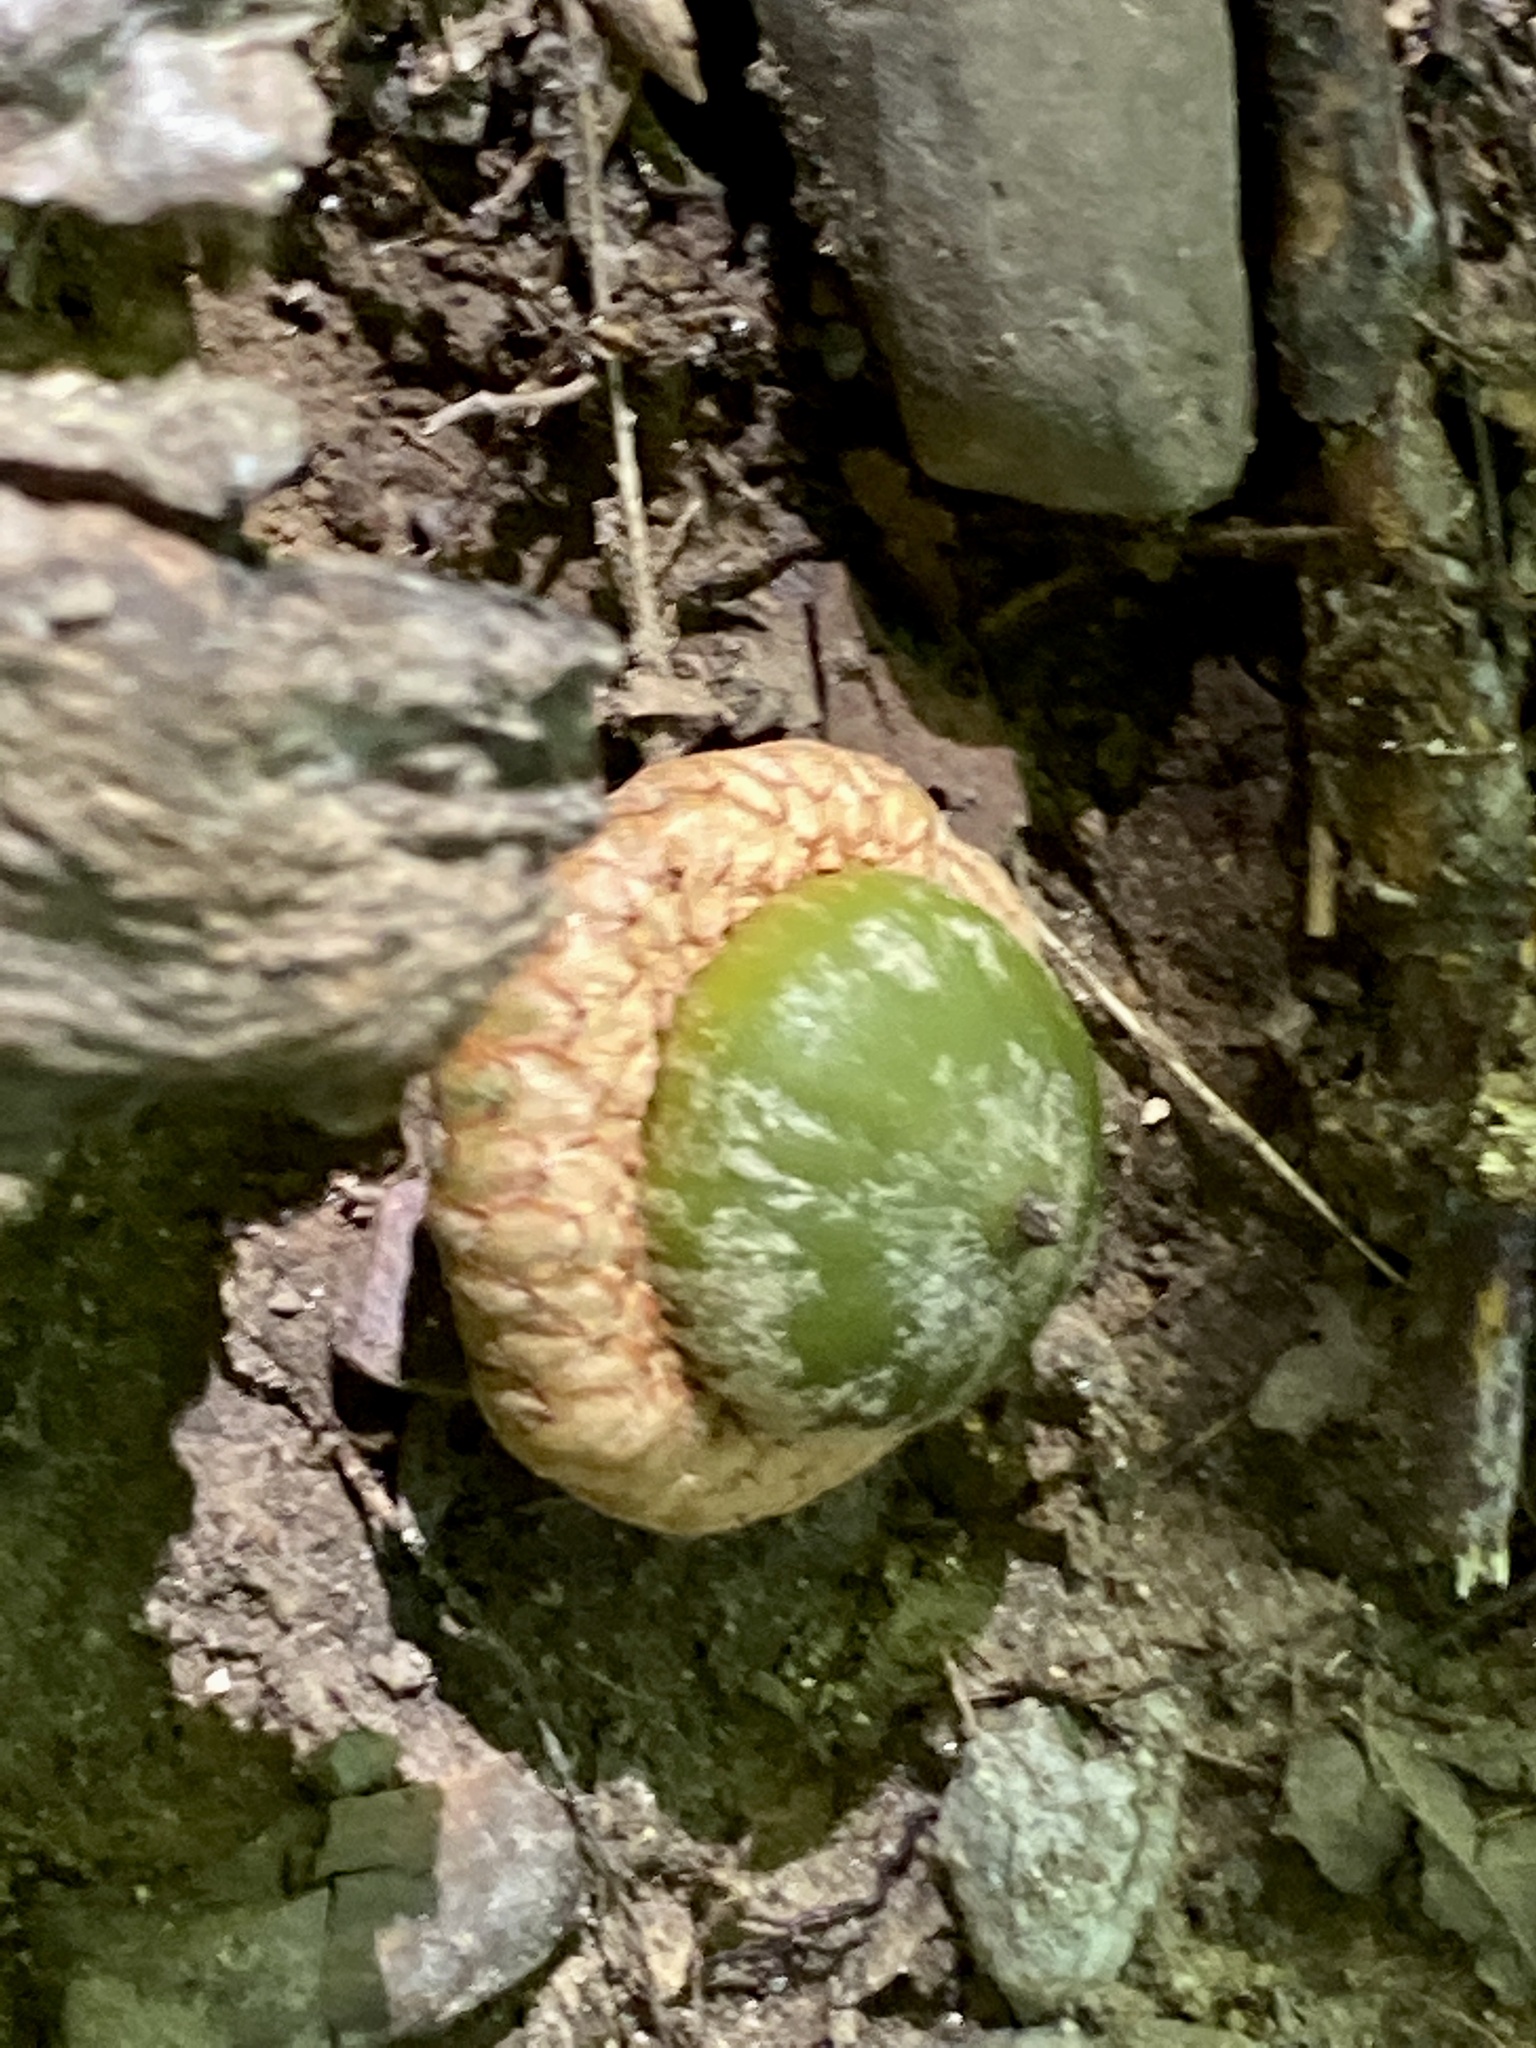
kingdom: Plantae
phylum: Tracheophyta
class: Magnoliopsida
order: Fagales
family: Fagaceae
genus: Quercus
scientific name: Quercus rubra
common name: Red oak
